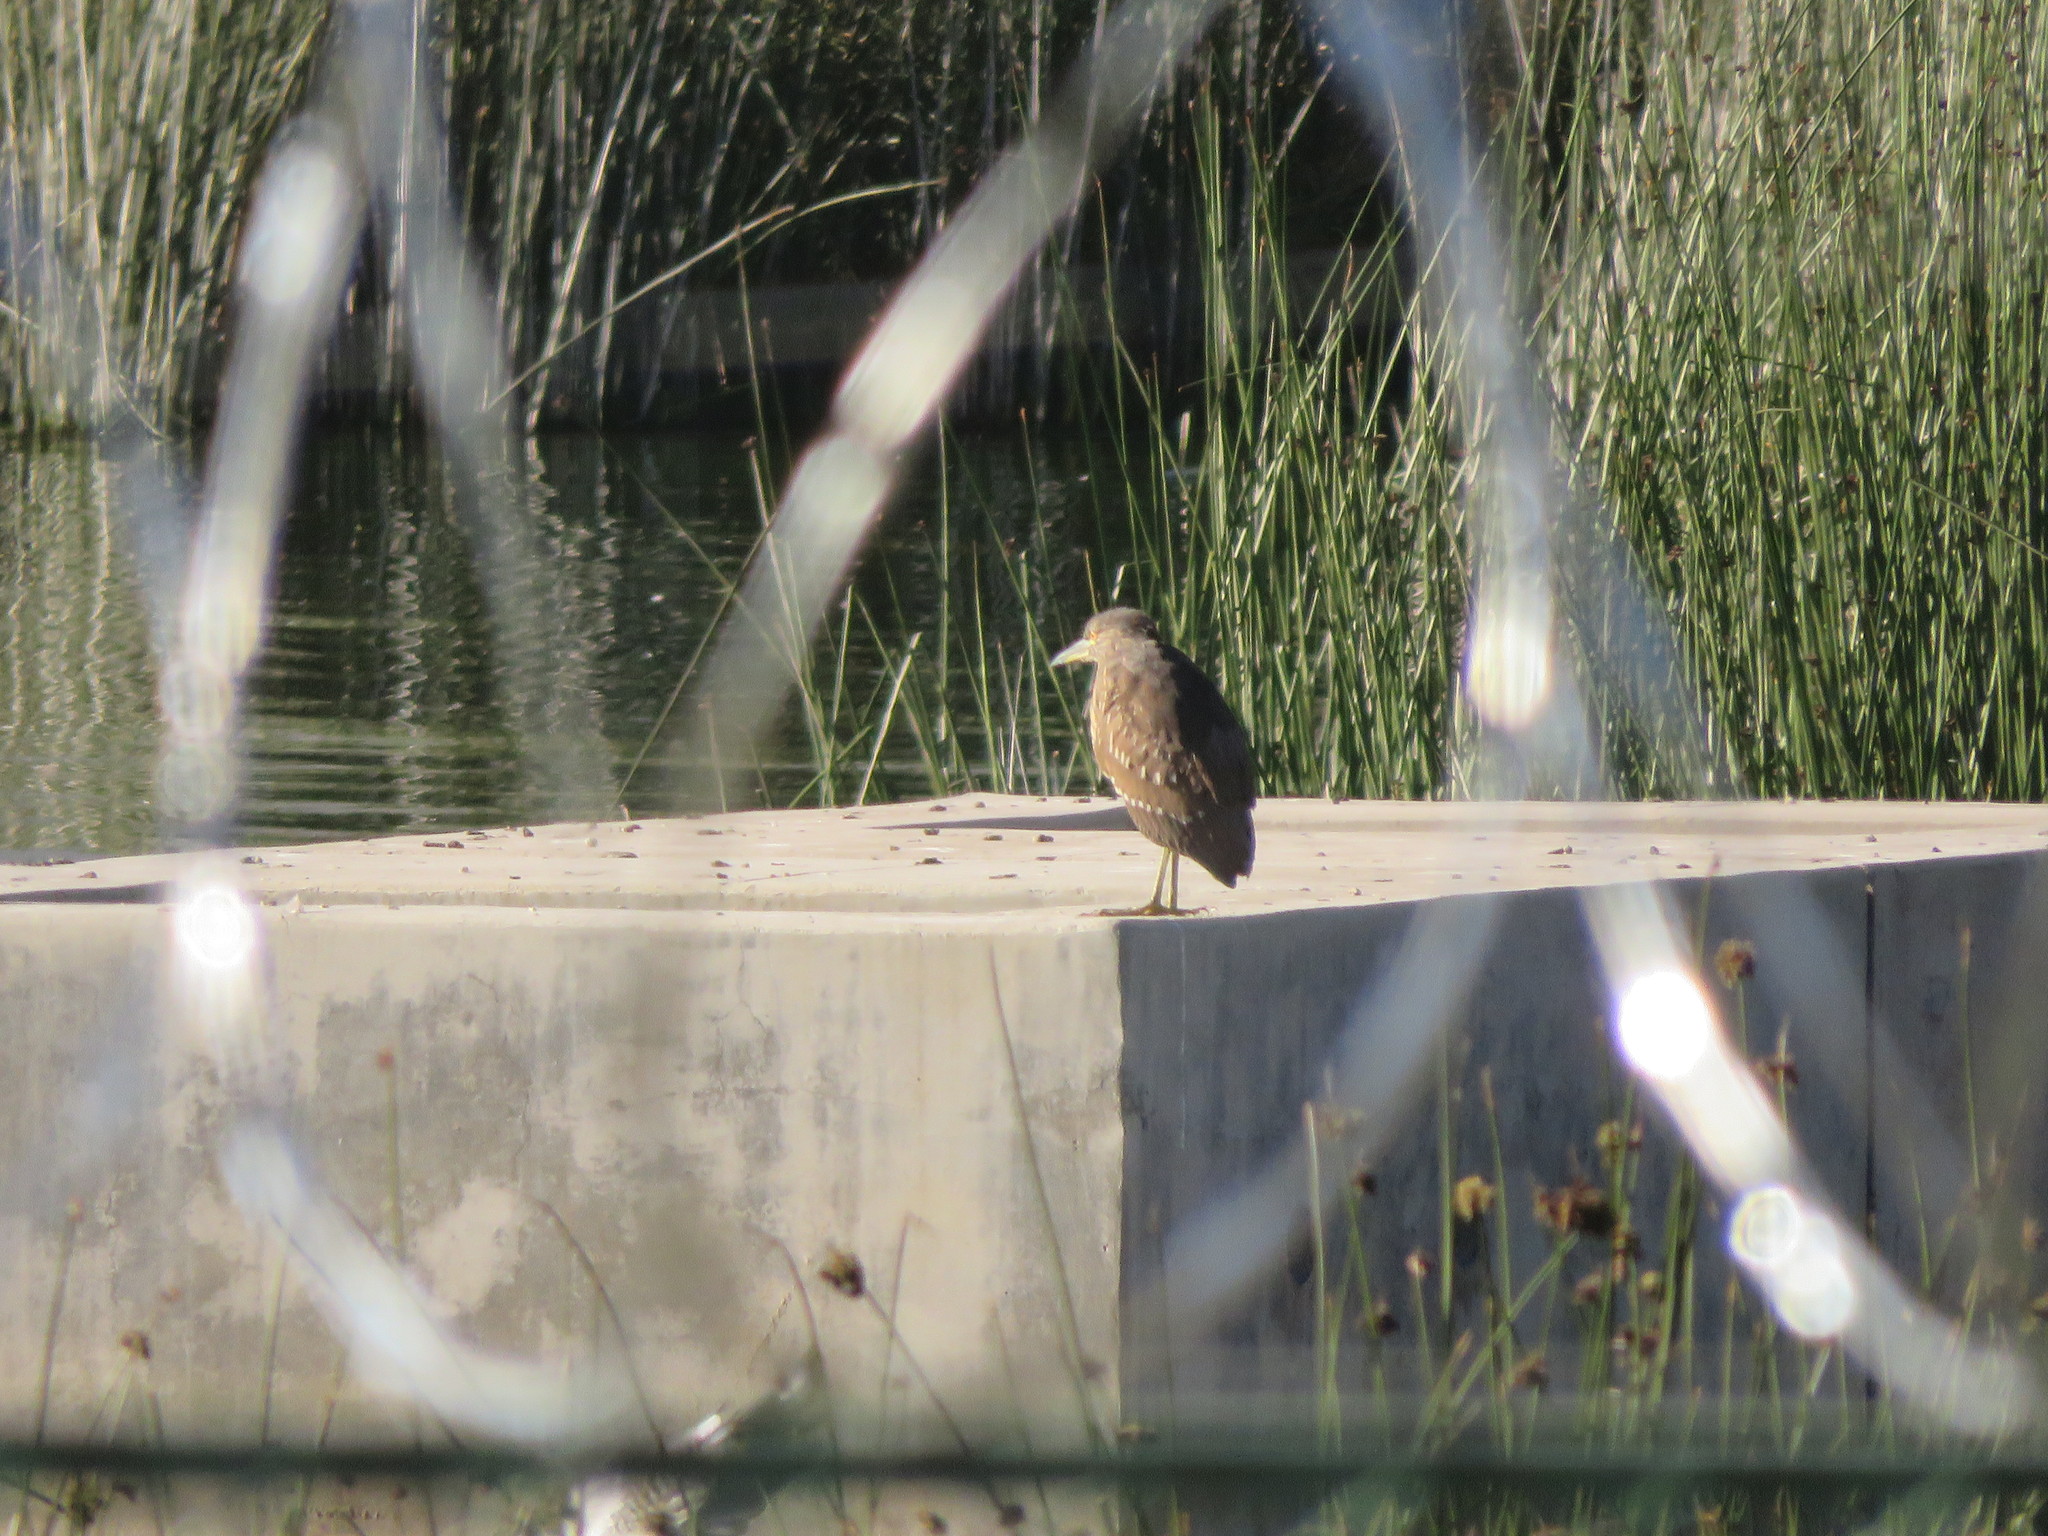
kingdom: Animalia
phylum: Chordata
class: Aves
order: Pelecaniformes
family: Ardeidae
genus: Nycticorax
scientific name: Nycticorax nycticorax
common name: Black-crowned night heron
